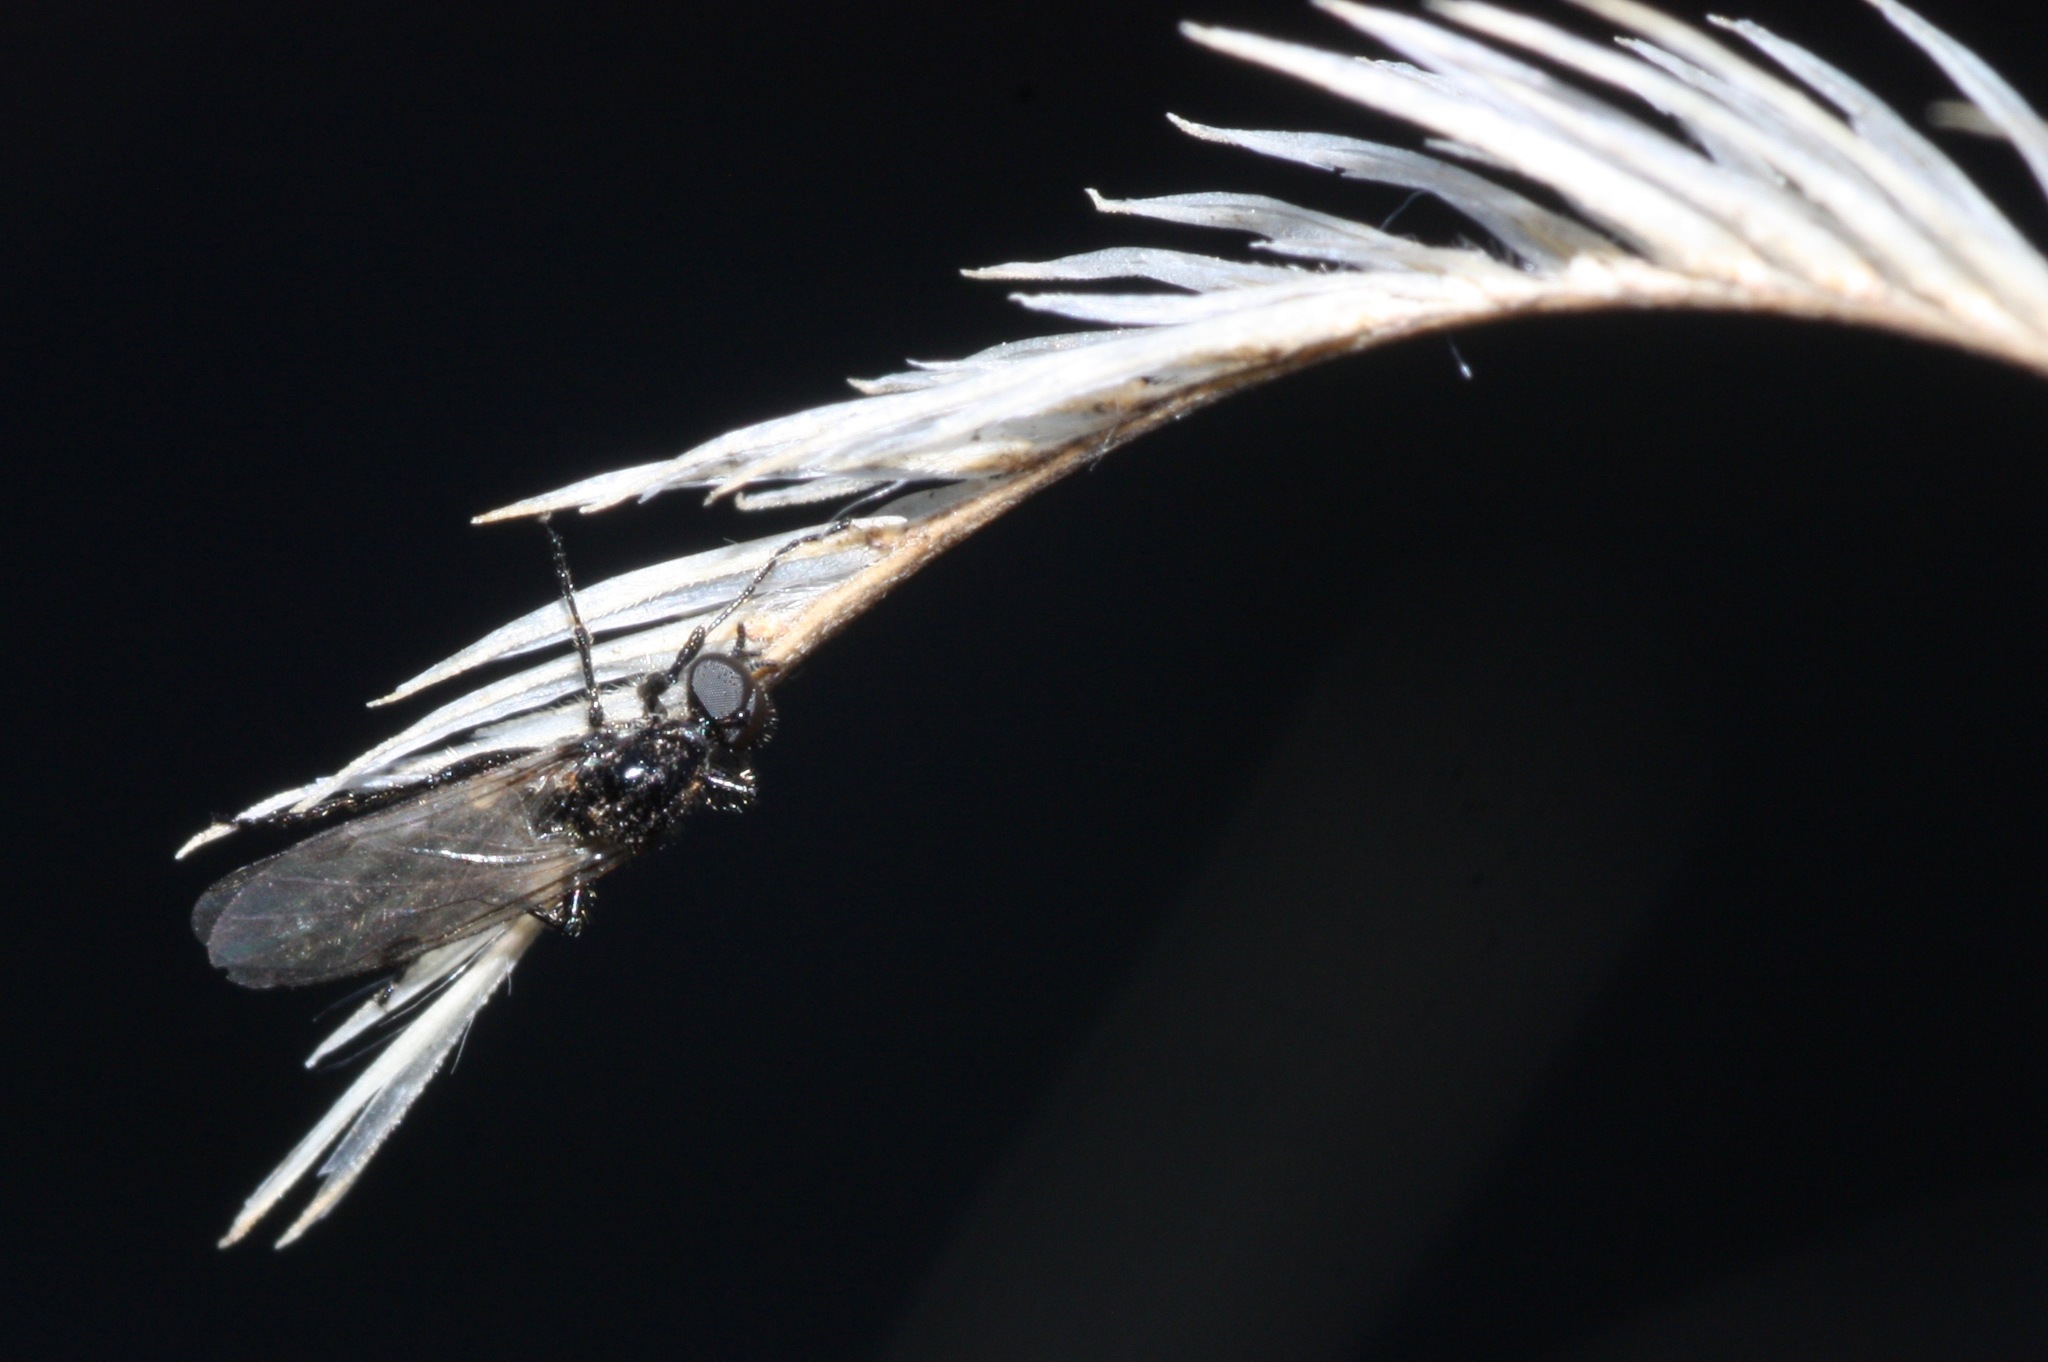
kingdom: Animalia
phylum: Arthropoda
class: Insecta
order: Diptera
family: Bibionidae
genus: Bibiodes
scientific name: Bibiodes halteralis
